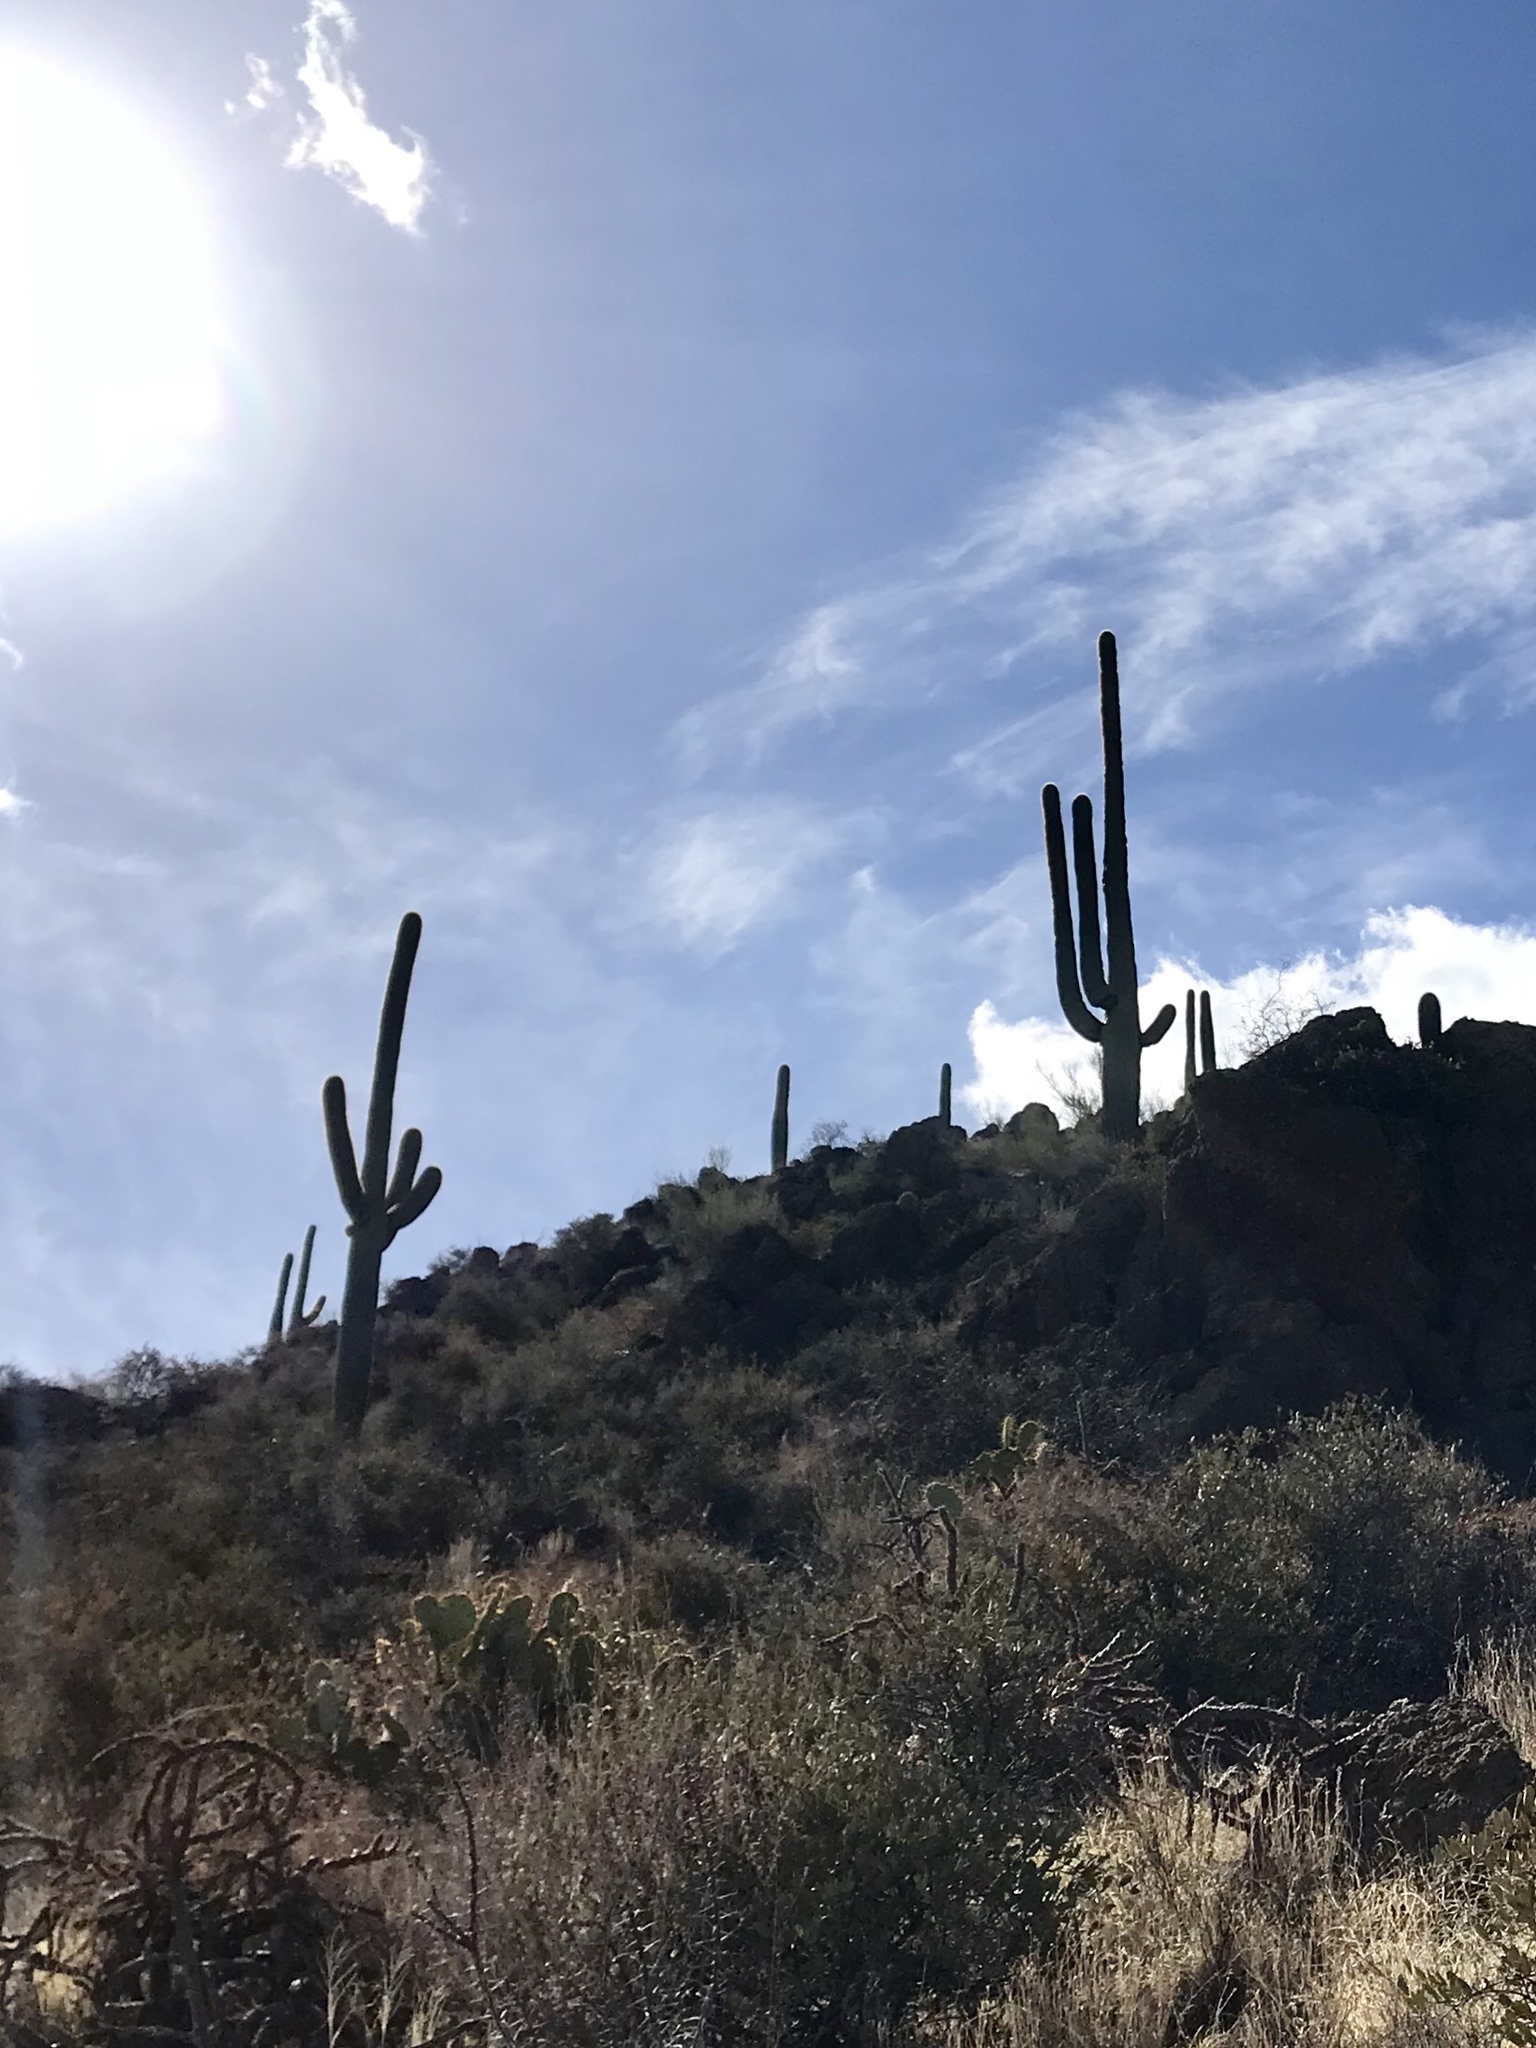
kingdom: Plantae
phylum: Tracheophyta
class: Magnoliopsida
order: Caryophyllales
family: Cactaceae
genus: Carnegiea
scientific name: Carnegiea gigantea
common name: Saguaro
